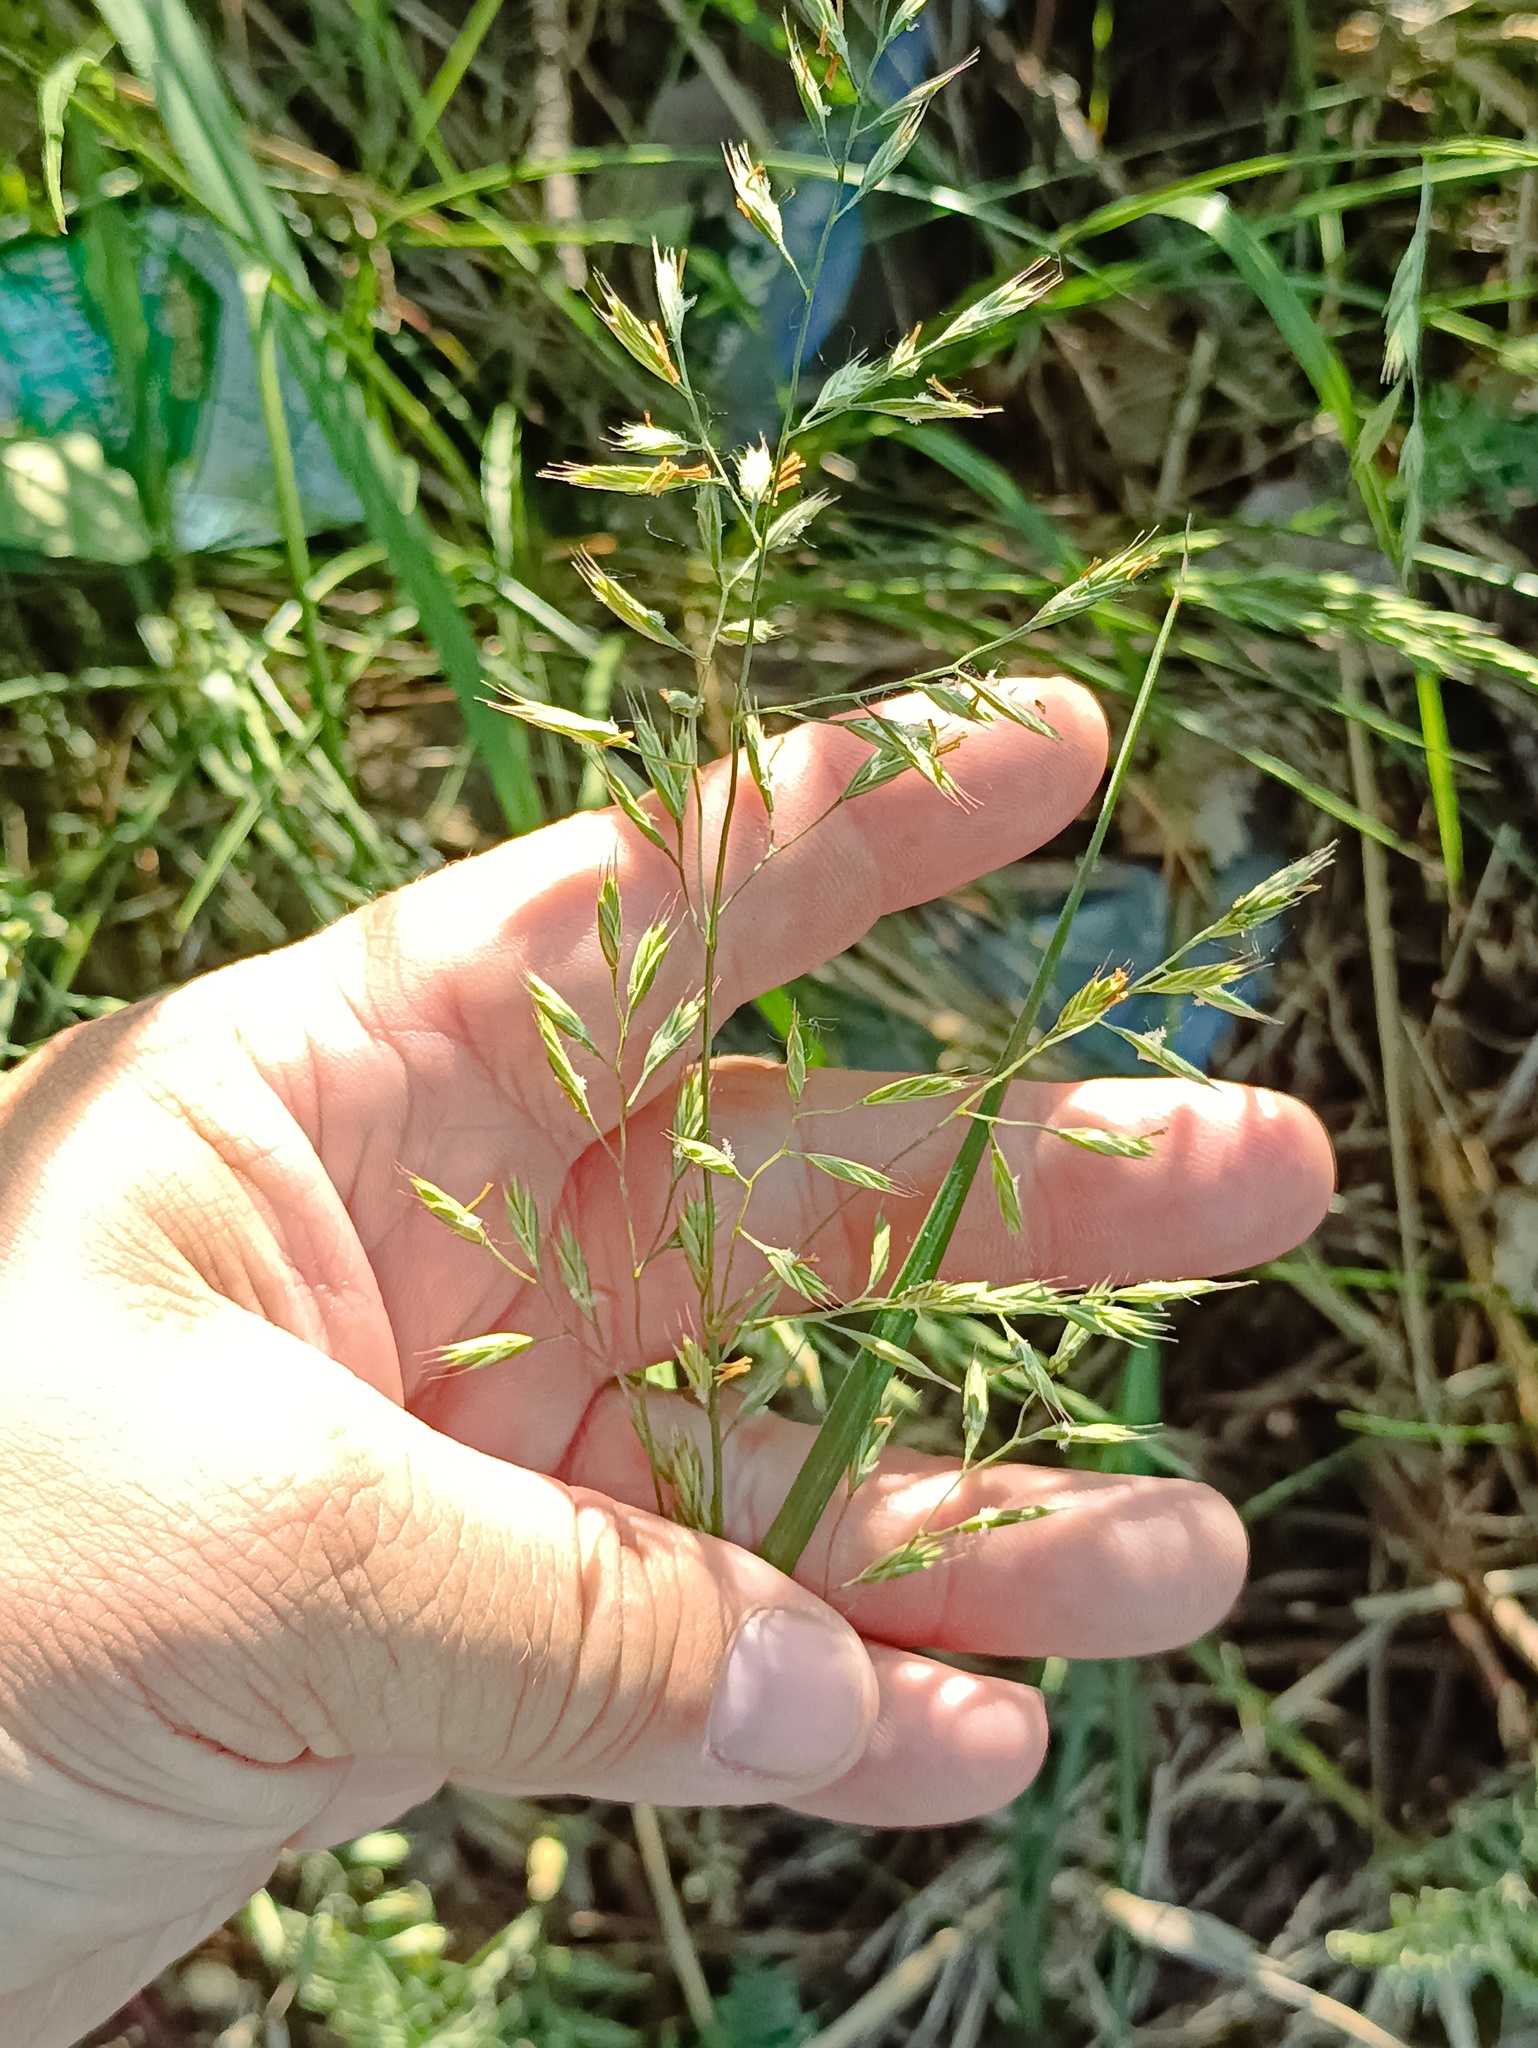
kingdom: Plantae
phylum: Tracheophyta
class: Liliopsida
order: Poales
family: Poaceae
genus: Lolium
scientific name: Lolium pratense
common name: Dover grass
